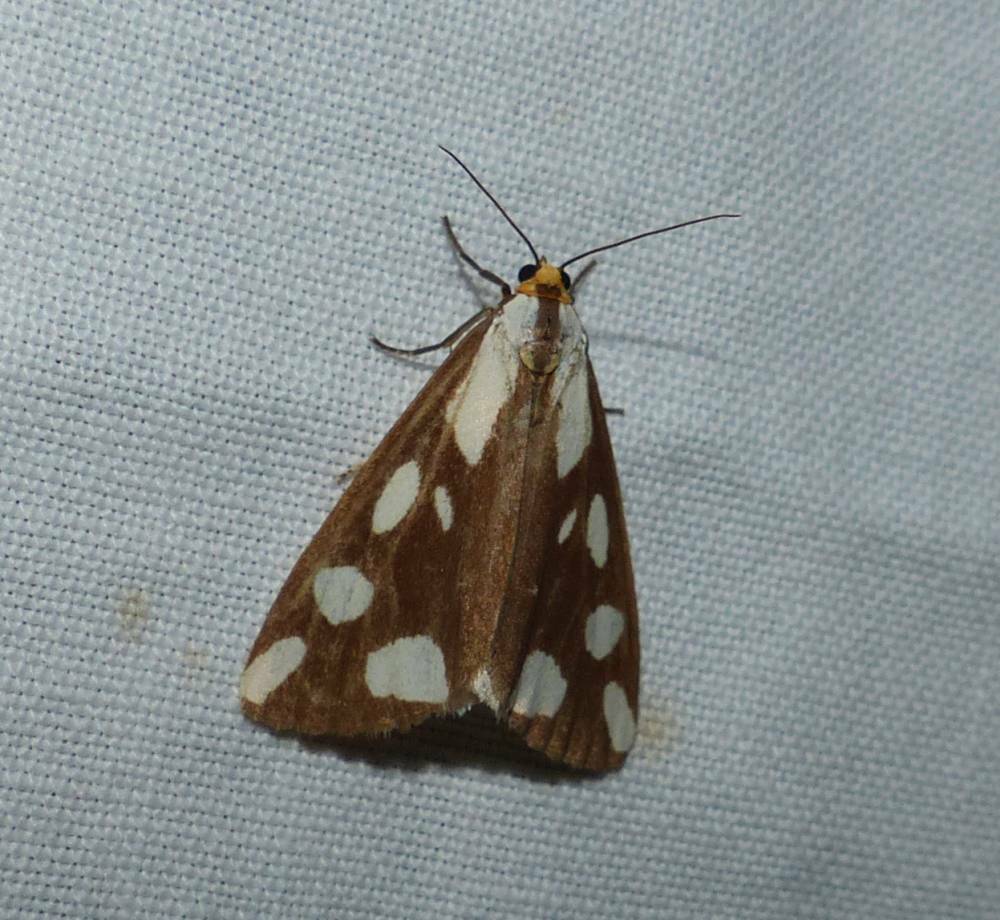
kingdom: Animalia
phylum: Arthropoda
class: Insecta
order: Lepidoptera
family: Erebidae
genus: Haploa
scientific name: Haploa confusa
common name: Confused haploa moth
